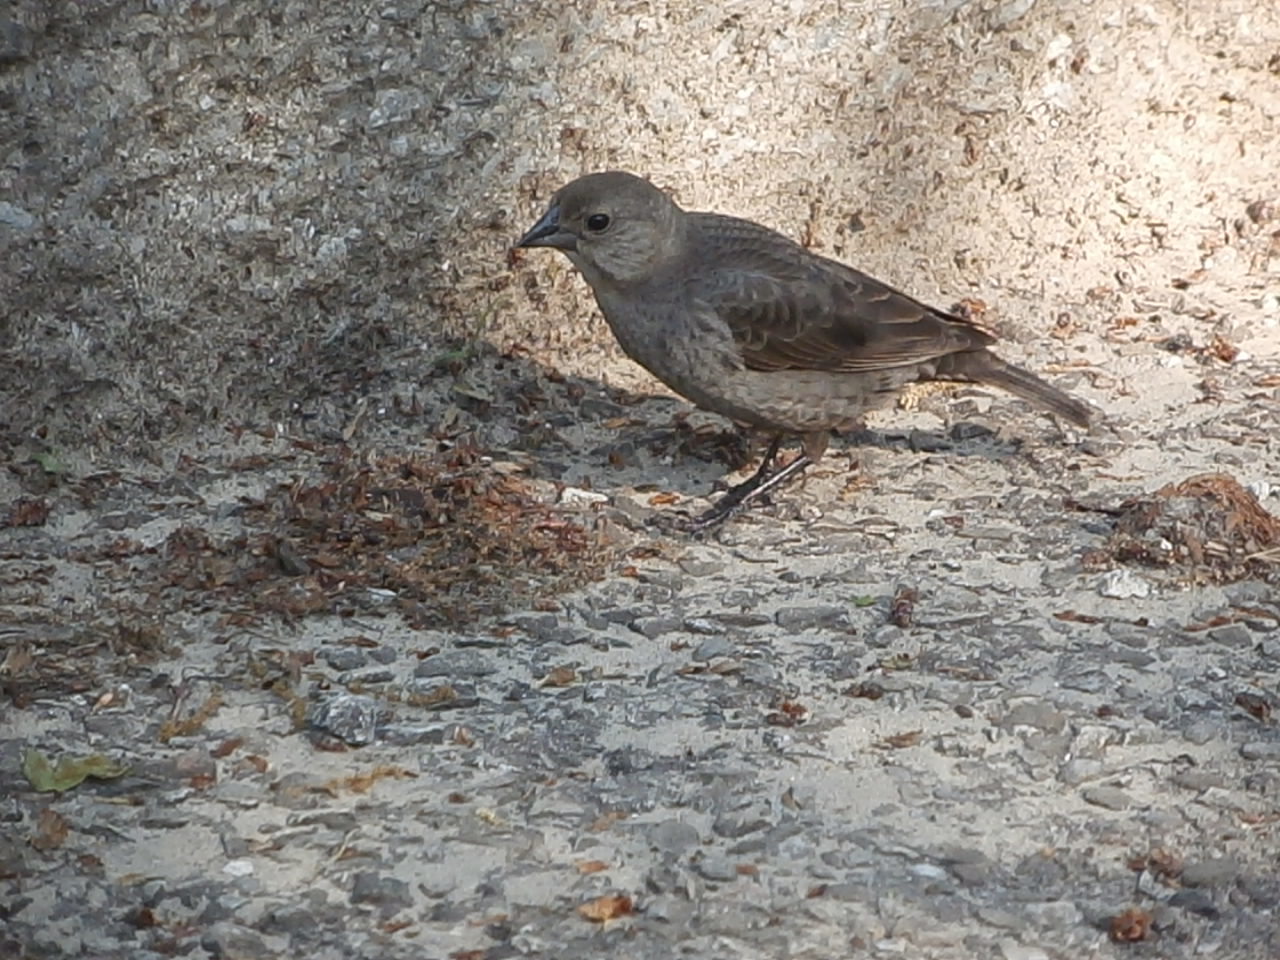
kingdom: Animalia
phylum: Chordata
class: Aves
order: Passeriformes
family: Icteridae
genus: Molothrus
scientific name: Molothrus ater
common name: Brown-headed cowbird
